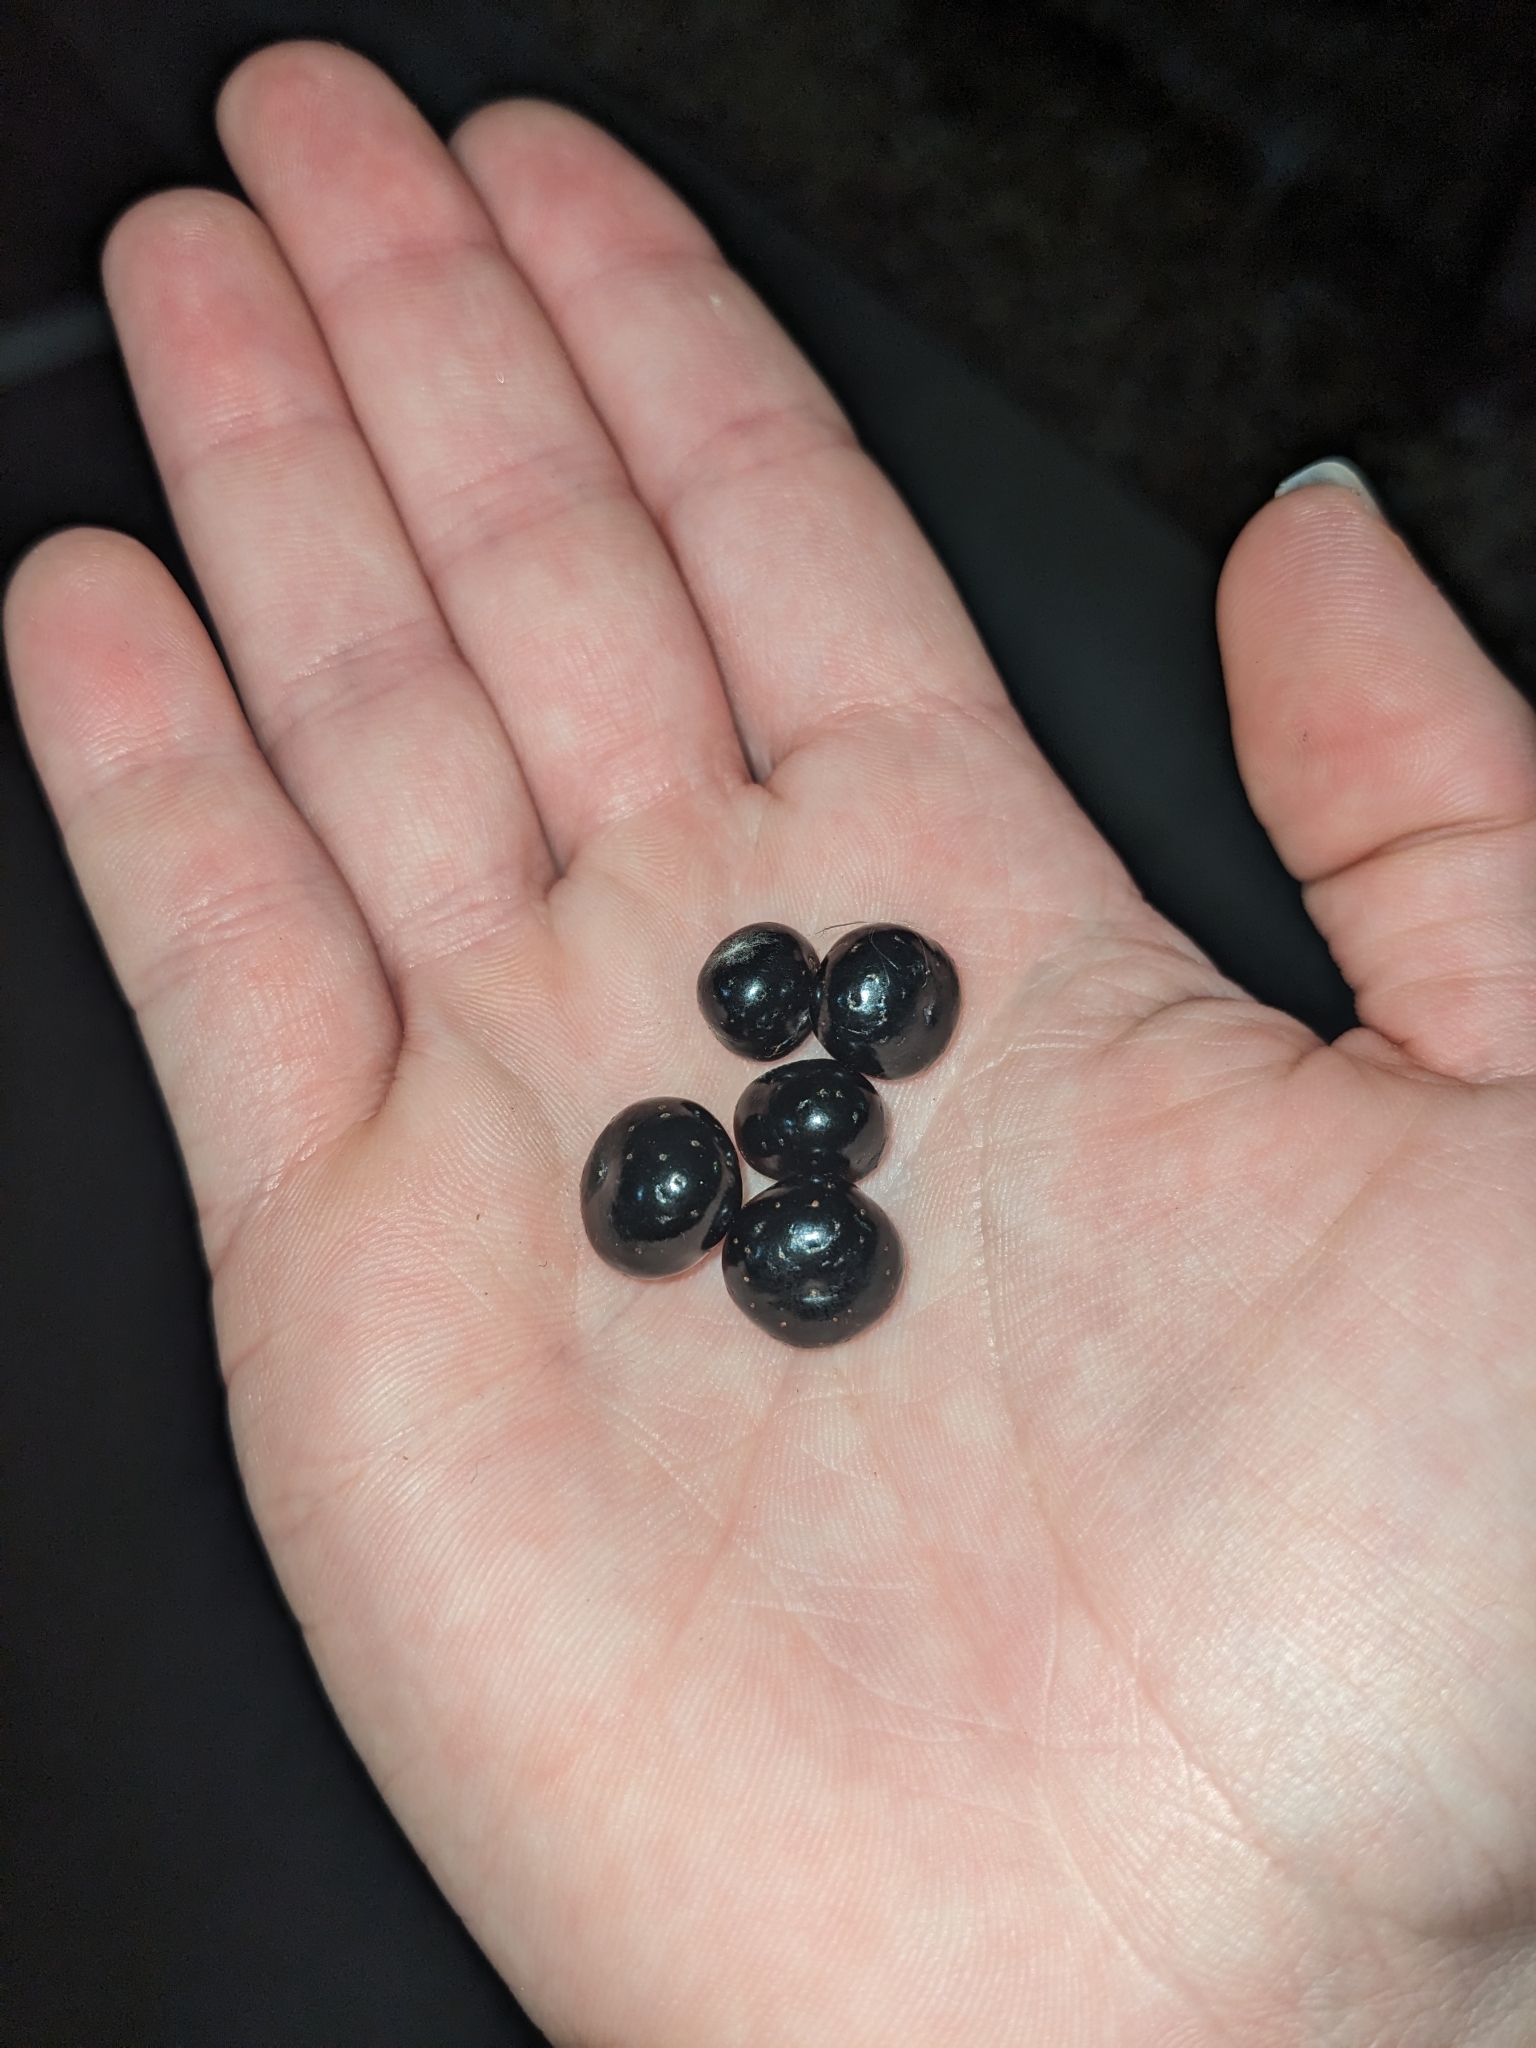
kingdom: Plantae
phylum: Tracheophyta
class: Magnoliopsida
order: Vitales
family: Vitaceae
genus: Nekemias
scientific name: Nekemias arborea
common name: Peppervine
